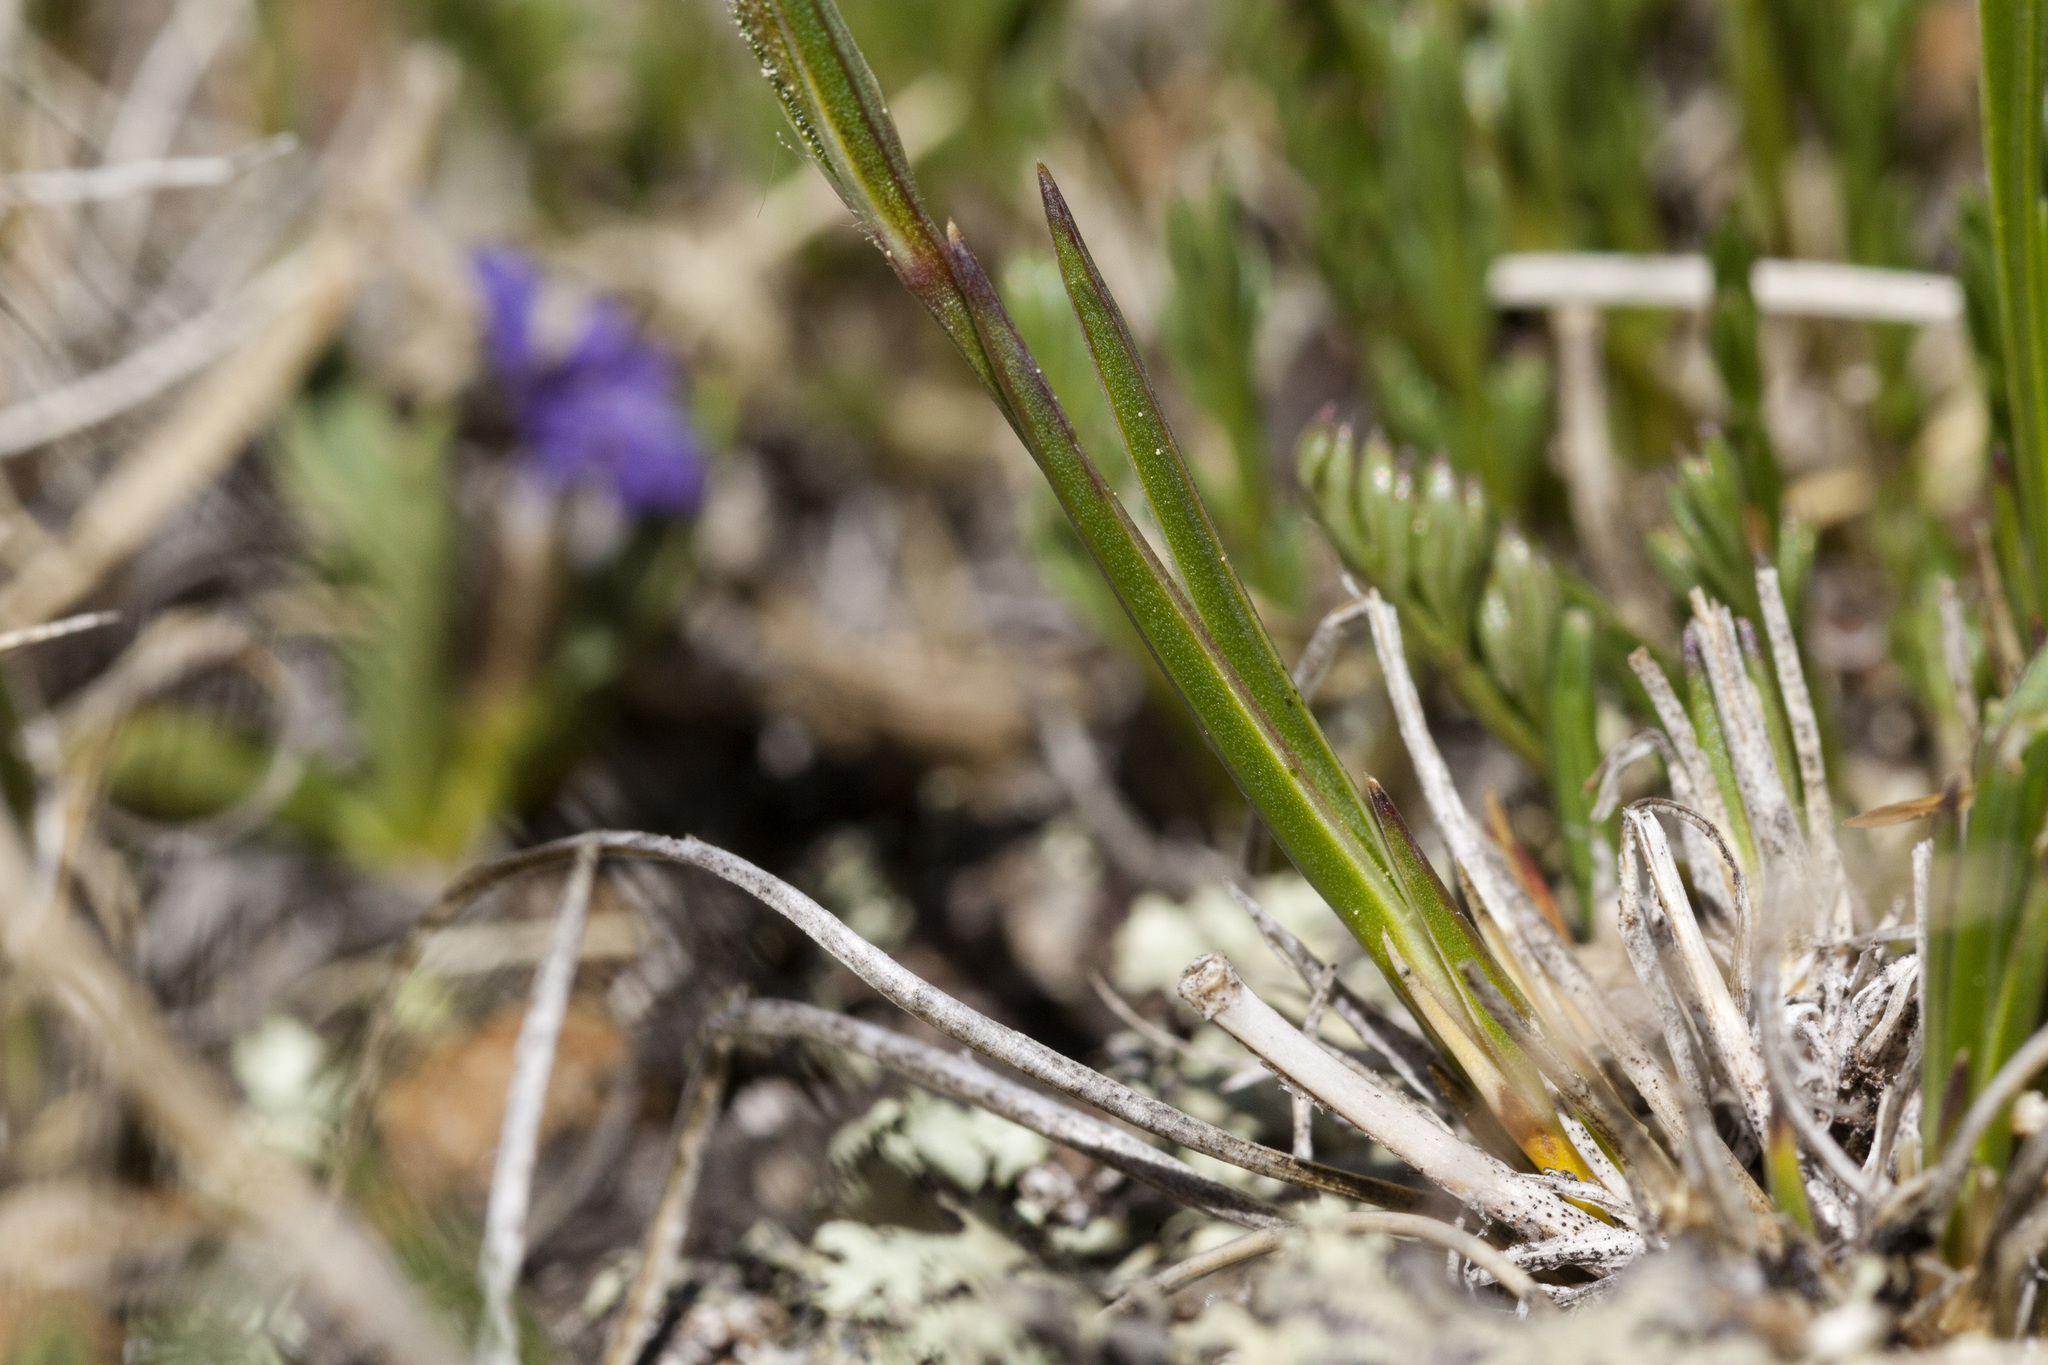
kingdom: Plantae
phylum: Tracheophyta
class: Magnoliopsida
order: Caryophyllales
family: Caryophyllaceae
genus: Eremogone
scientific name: Eremogone fendleri
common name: Fendler's sandwort
